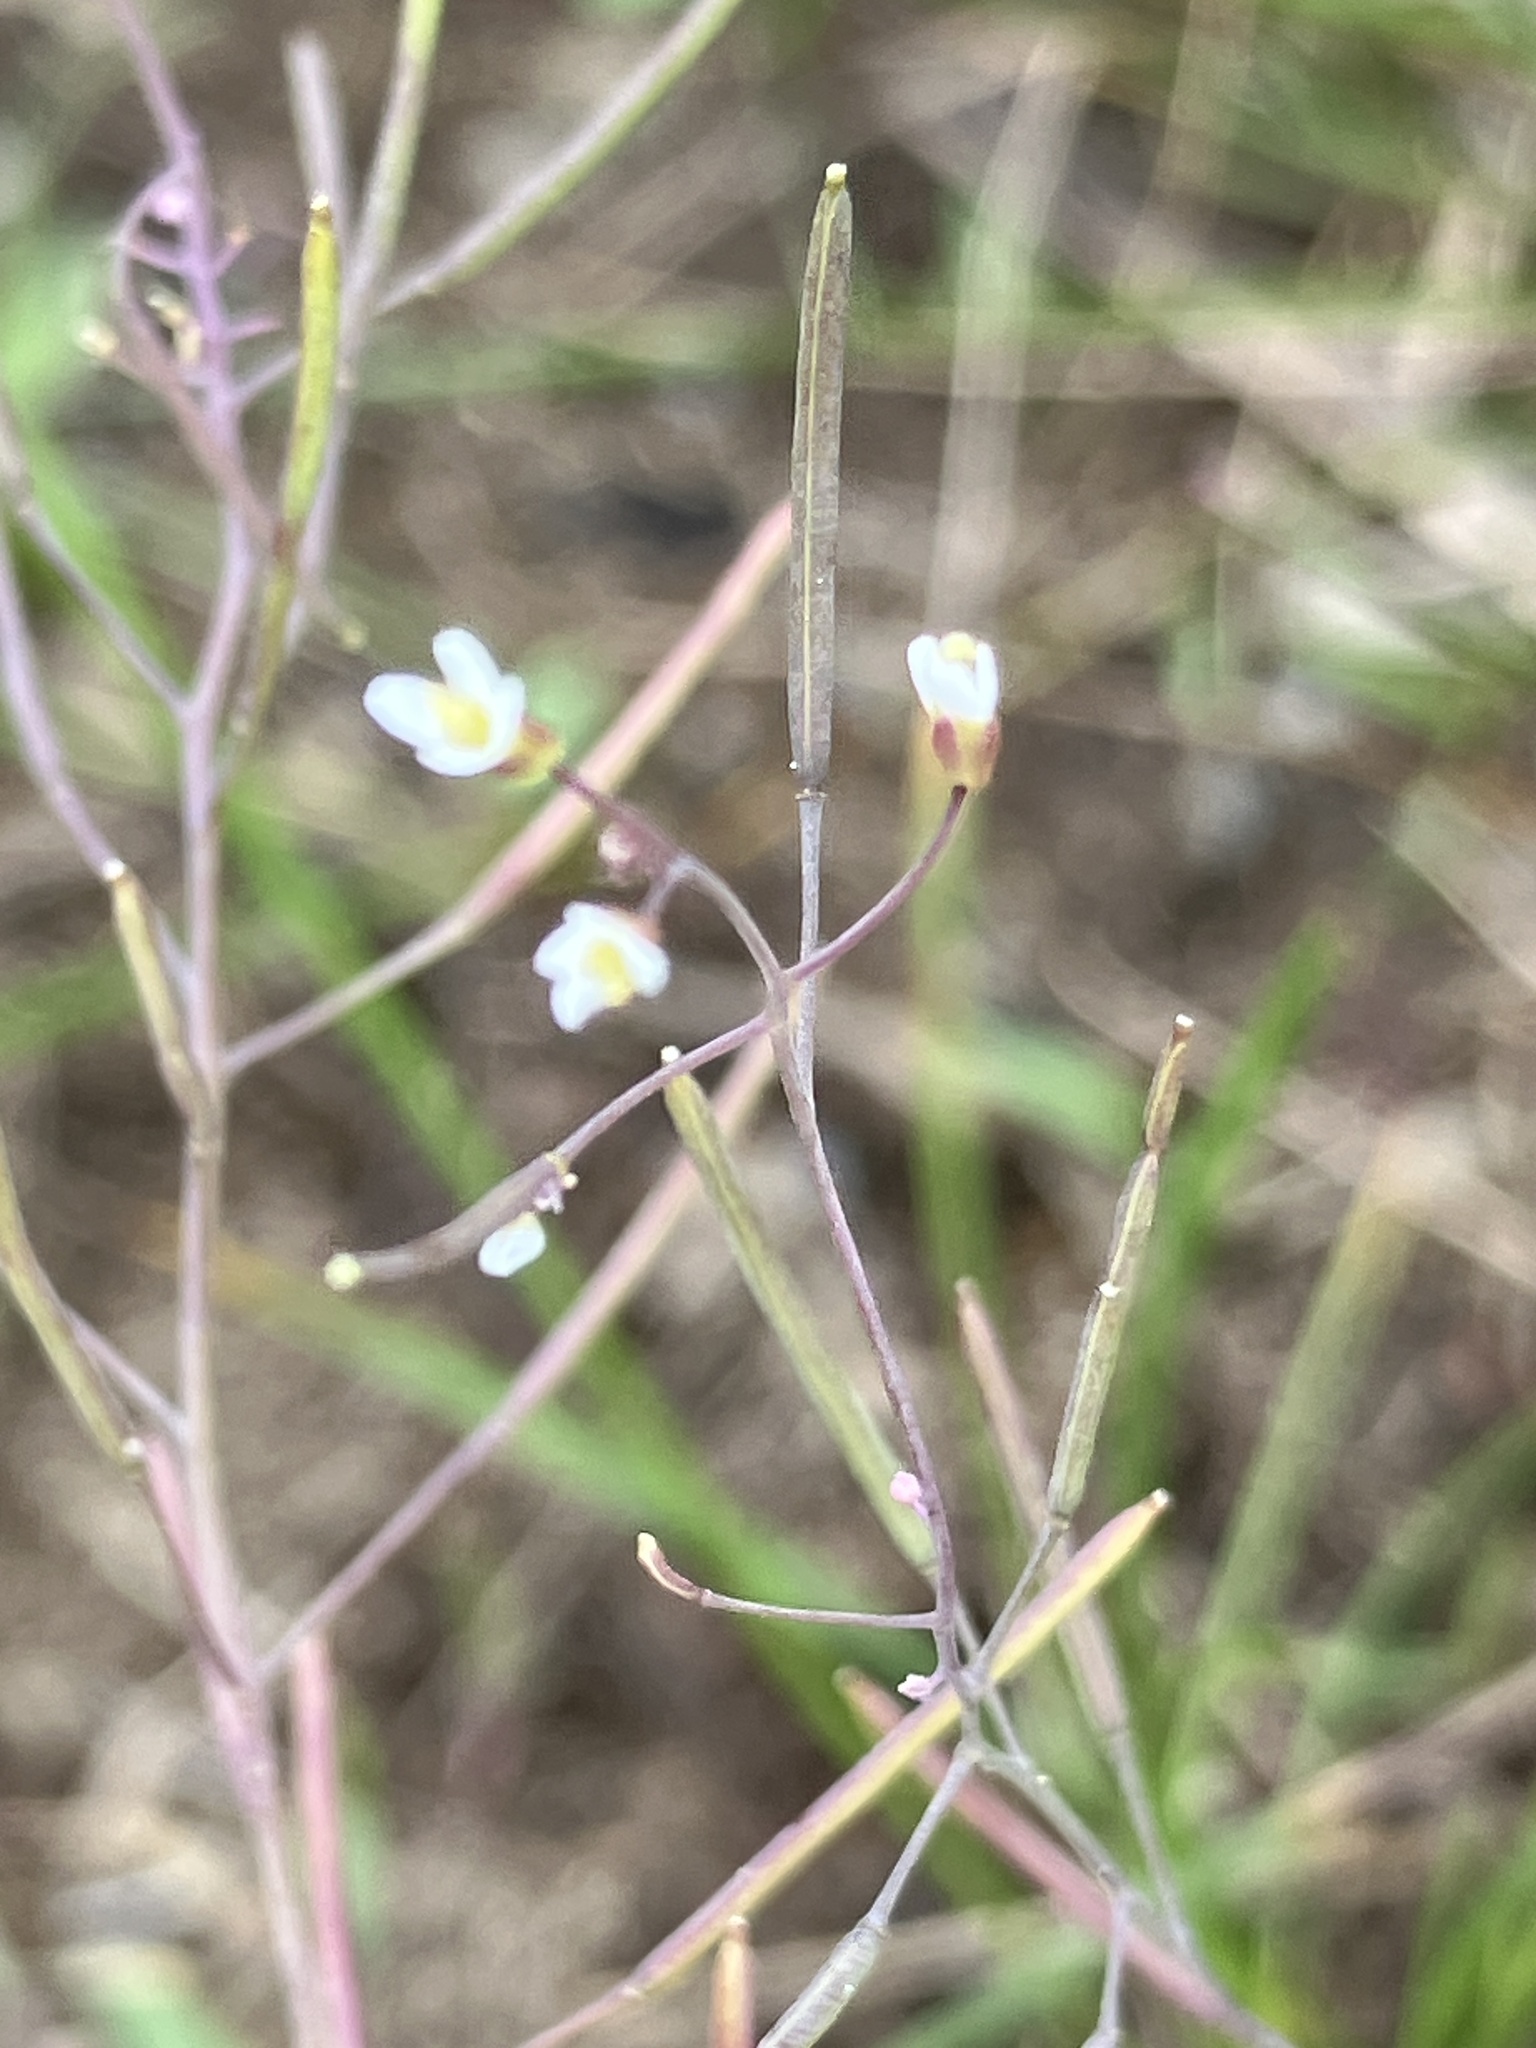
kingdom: Plantae
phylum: Tracheophyta
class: Magnoliopsida
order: Brassicales
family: Brassicaceae
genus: Arabidopsis
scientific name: Arabidopsis thaliana
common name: Thale cress
